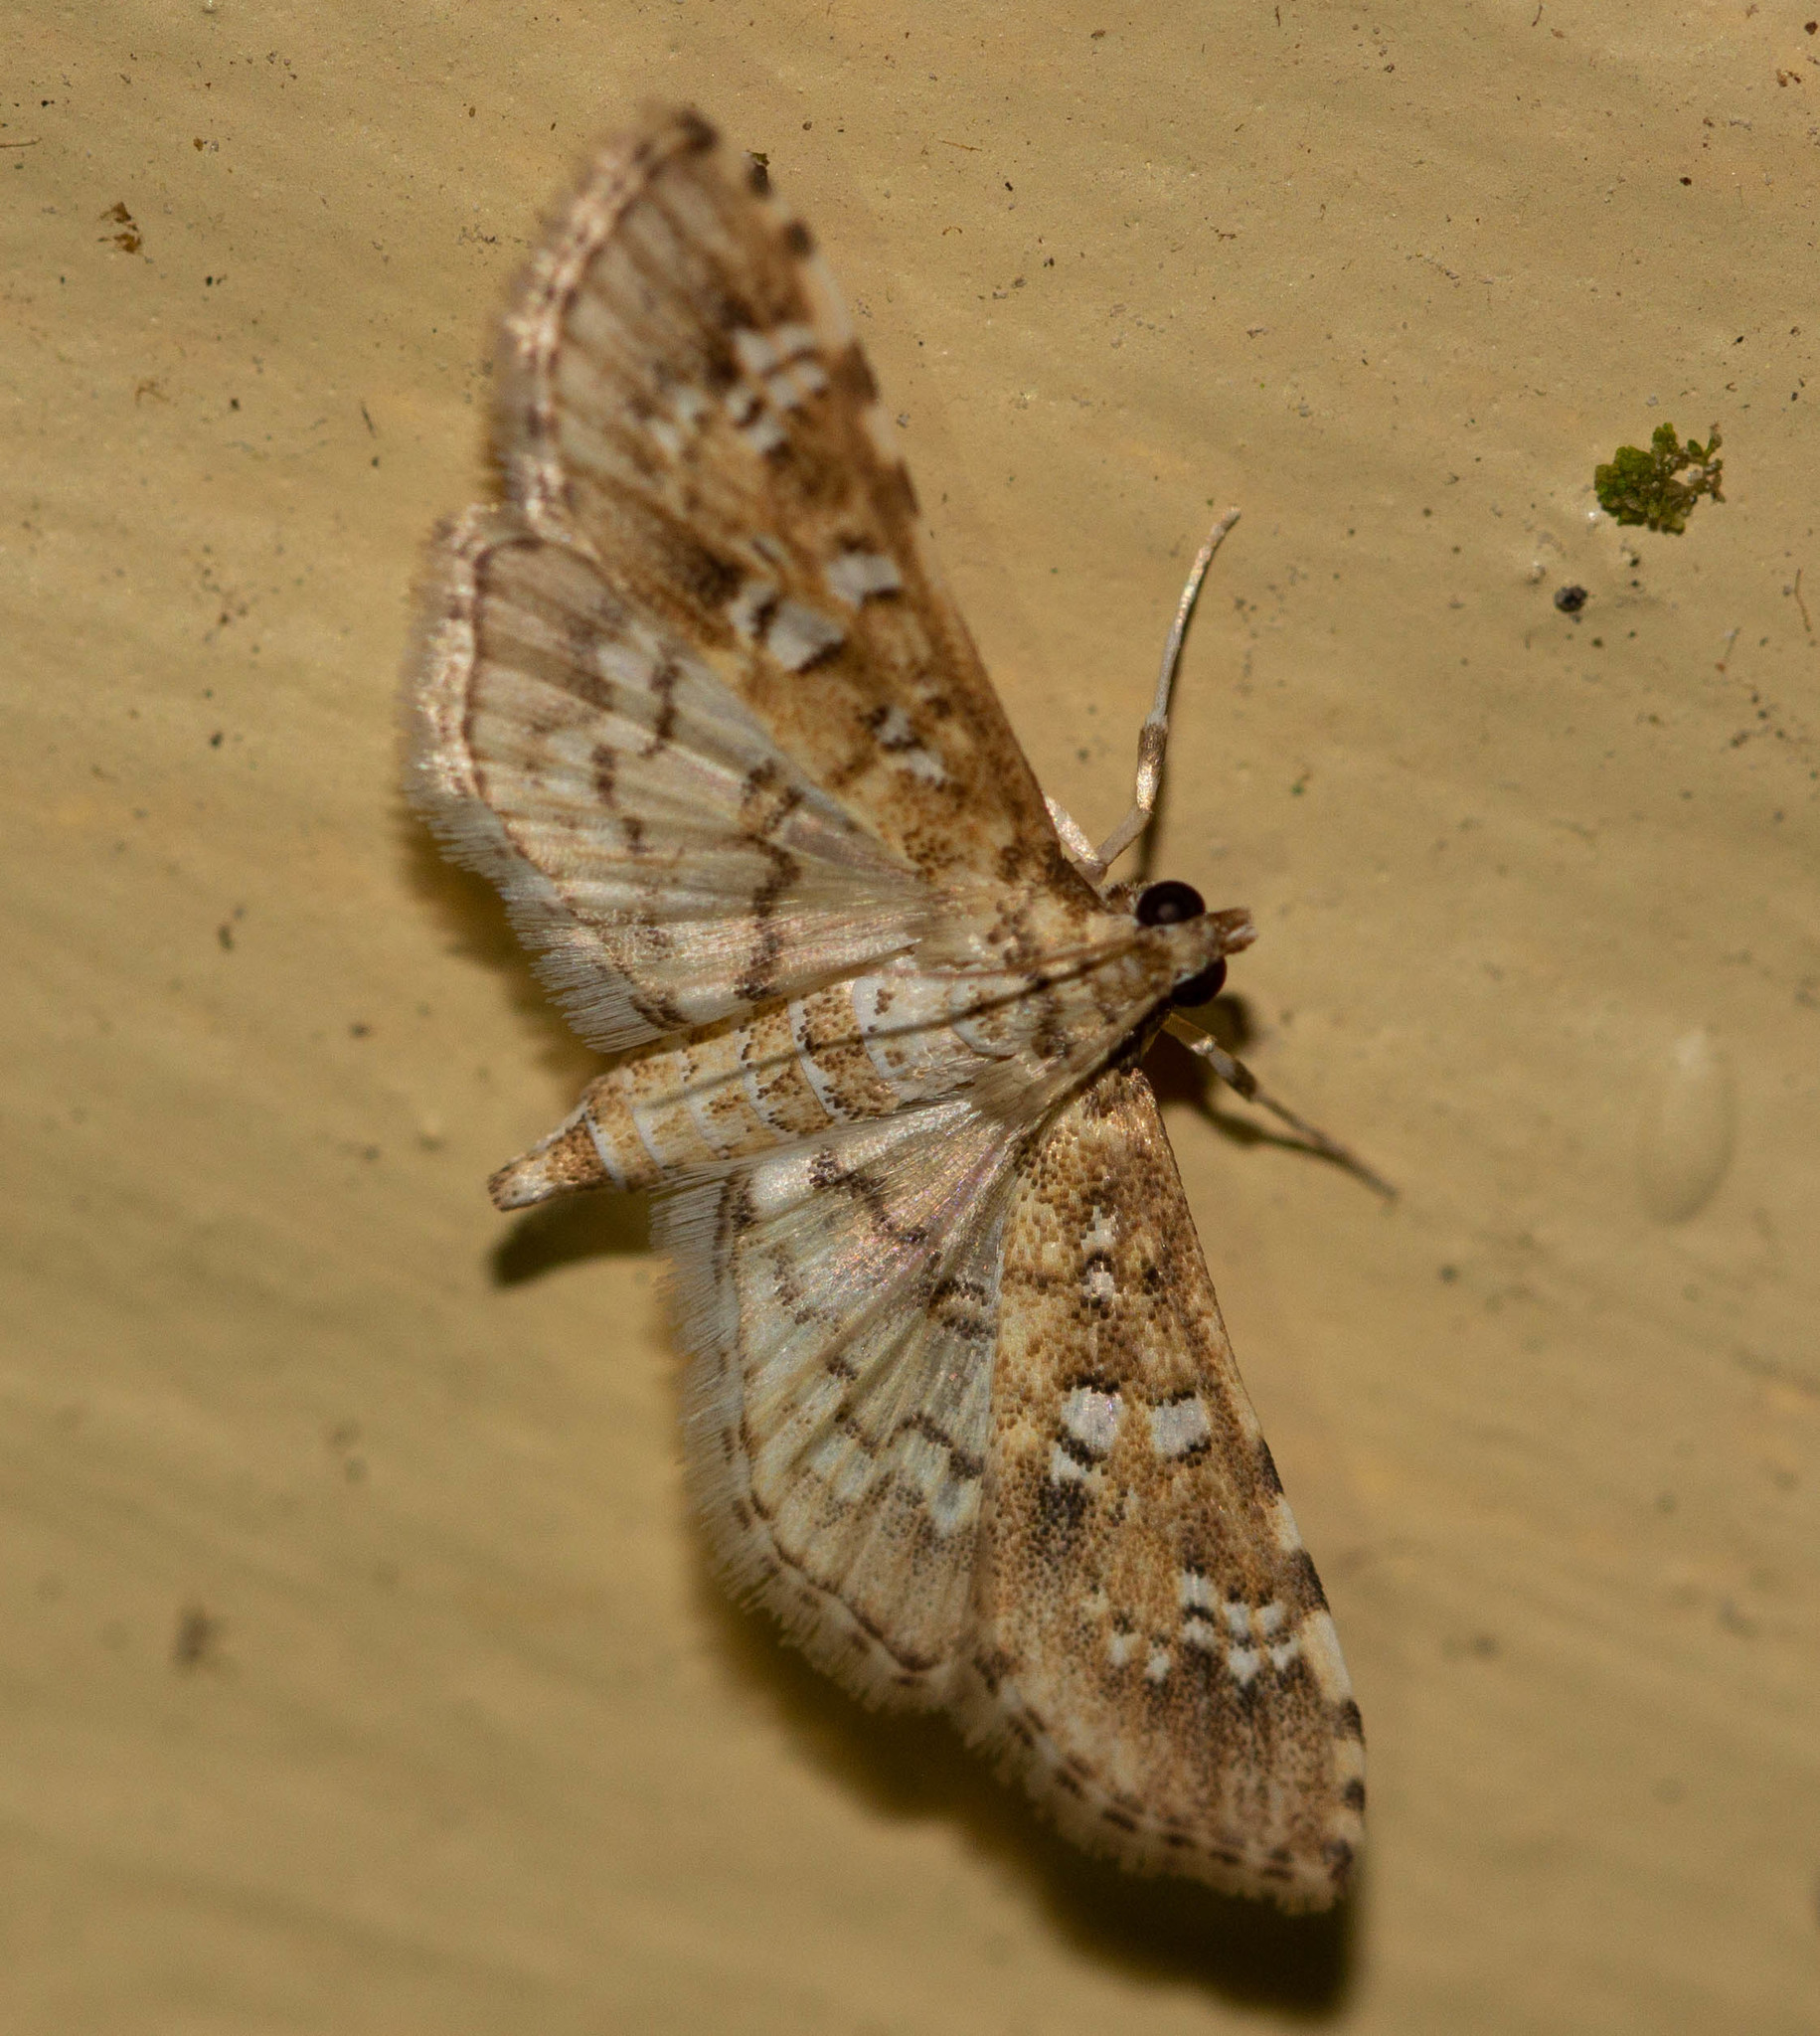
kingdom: Animalia
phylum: Arthropoda
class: Insecta
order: Lepidoptera
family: Crambidae
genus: Samea
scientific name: Samea multiplicalis
